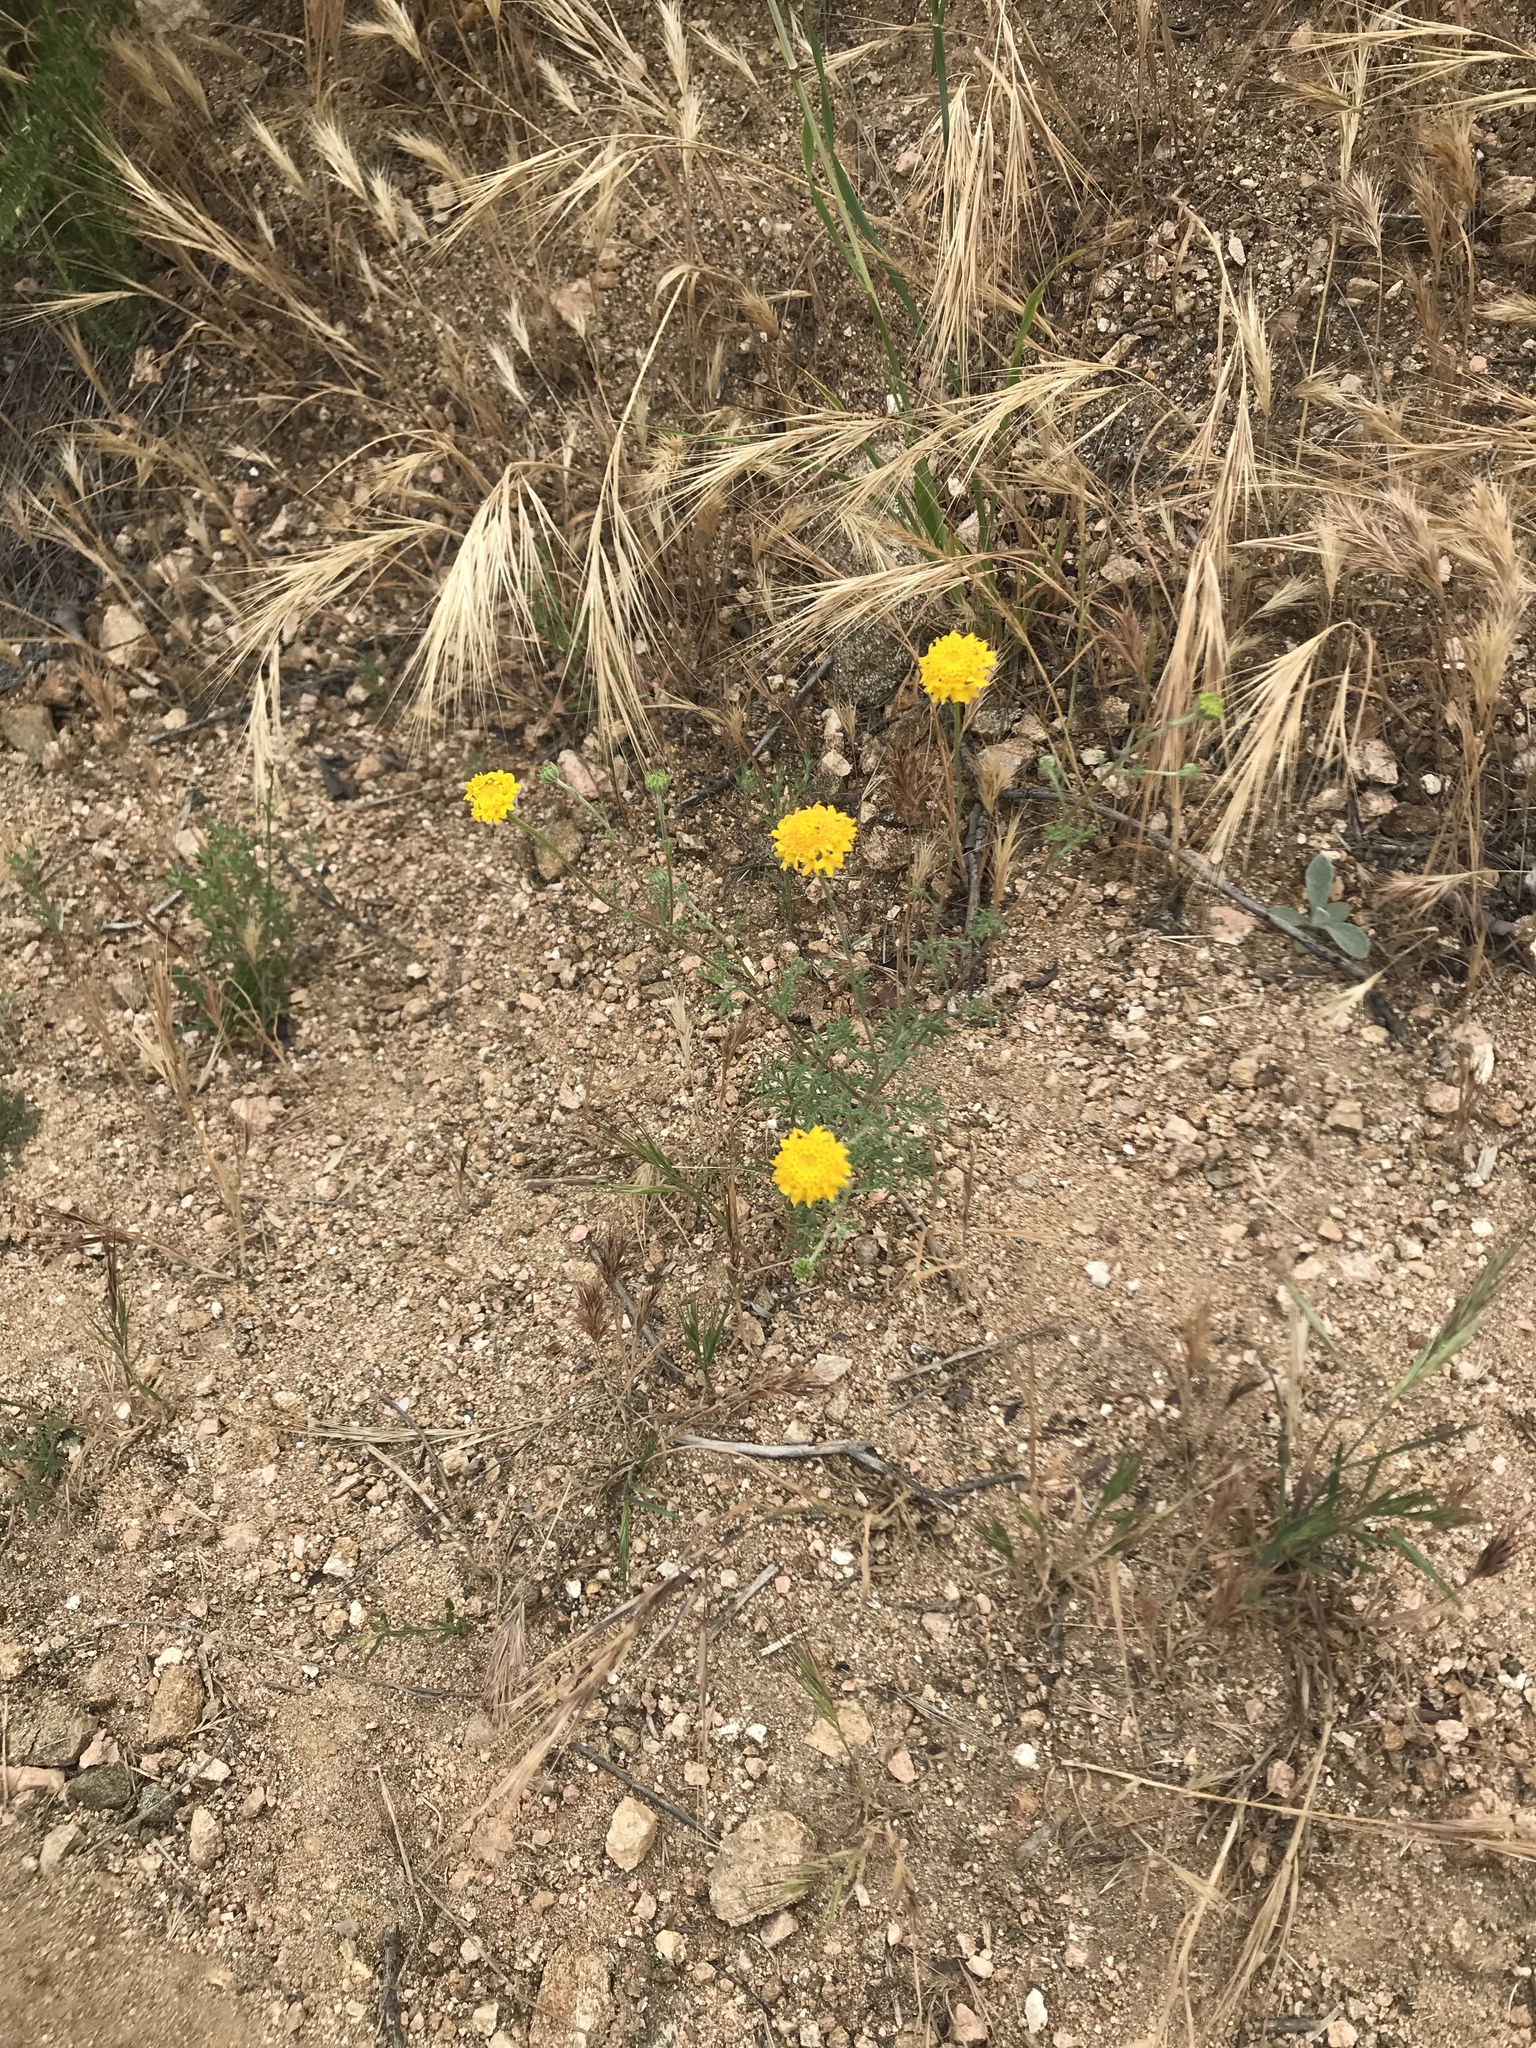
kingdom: Plantae
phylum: Tracheophyta
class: Magnoliopsida
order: Asterales
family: Asteraceae
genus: Chaenactis
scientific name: Chaenactis glabriuscula
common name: Yellow pincushion
